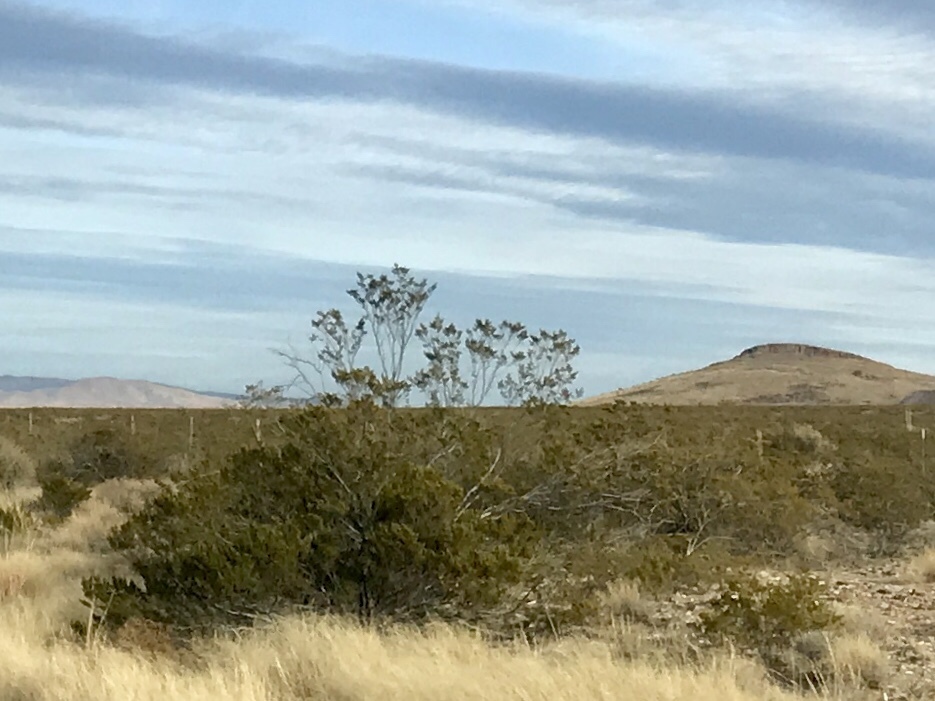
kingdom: Plantae
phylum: Tracheophyta
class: Magnoliopsida
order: Zygophyllales
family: Zygophyllaceae
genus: Larrea
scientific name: Larrea tridentata
